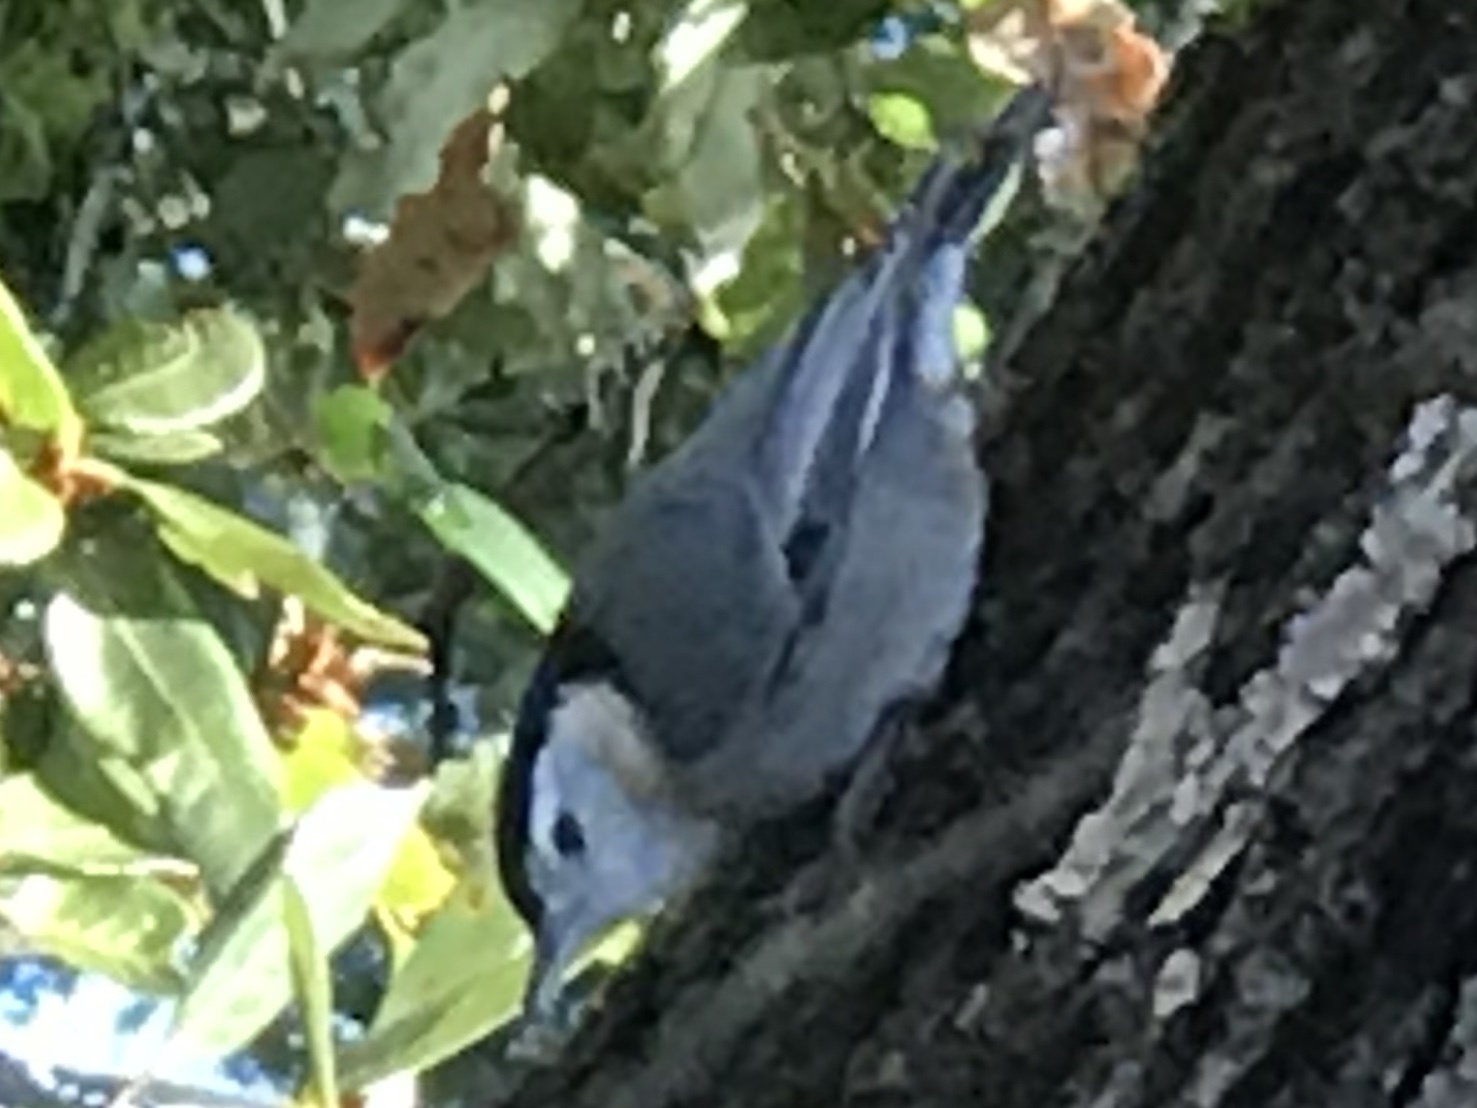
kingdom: Animalia
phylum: Chordata
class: Aves
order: Passeriformes
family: Sittidae
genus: Sitta
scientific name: Sitta carolinensis
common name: White-breasted nuthatch
